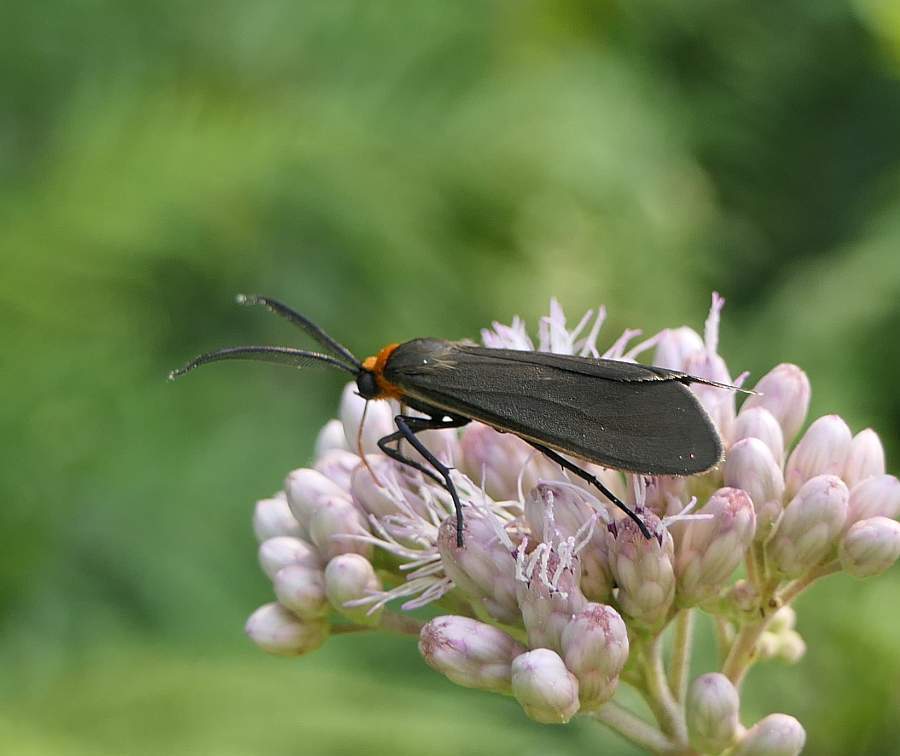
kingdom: Animalia
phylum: Arthropoda
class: Insecta
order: Lepidoptera
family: Erebidae
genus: Cisseps
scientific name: Cisseps fulvicollis
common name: Yellow-collared scape moth
